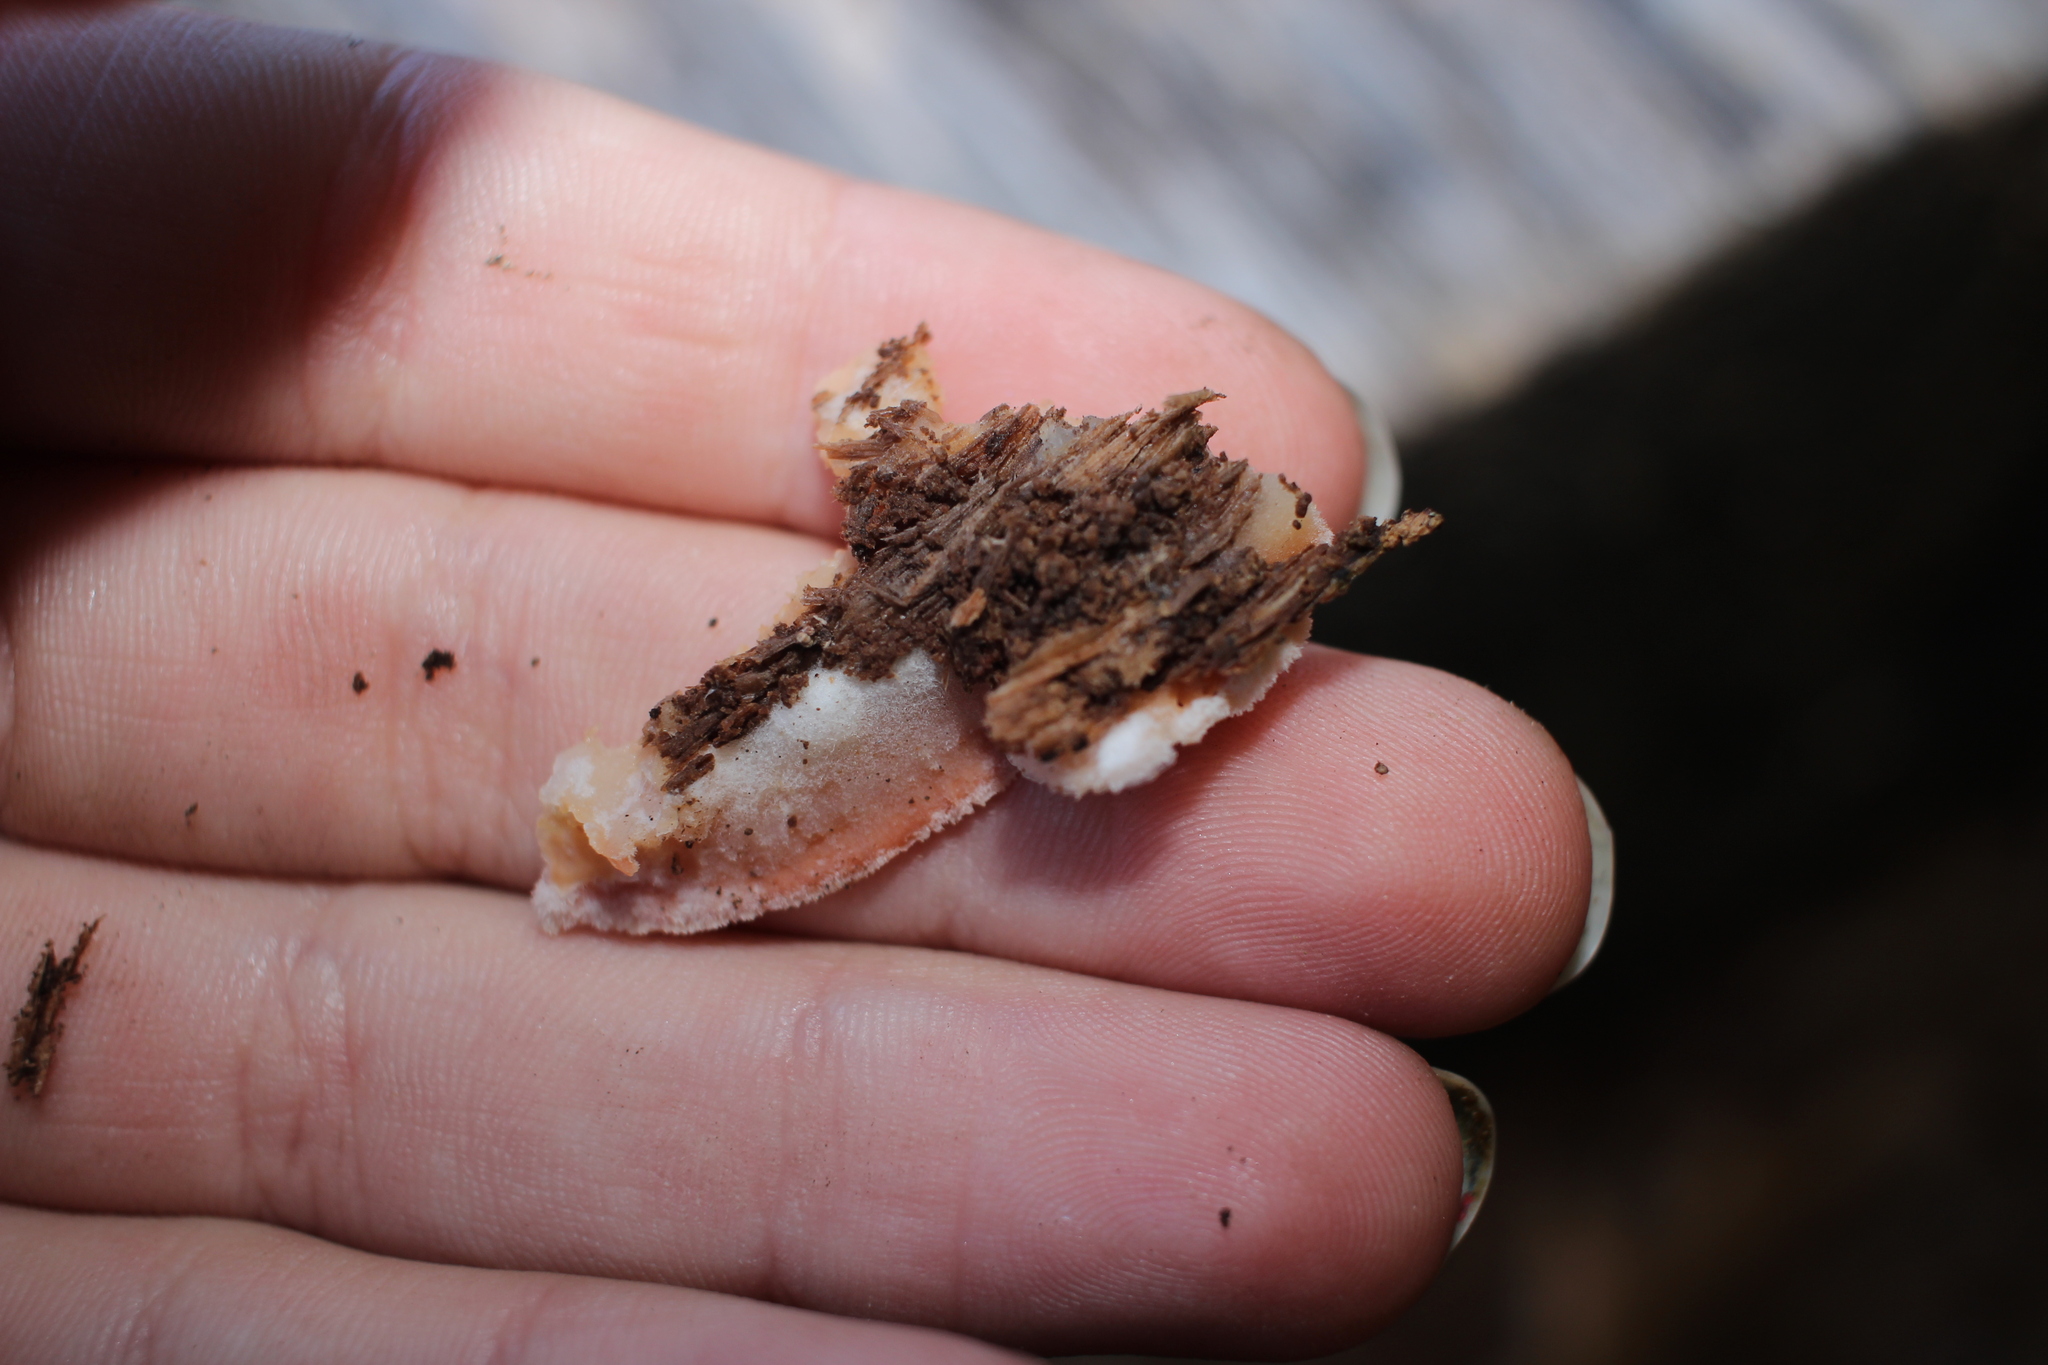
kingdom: Fungi
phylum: Basidiomycota
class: Agaricomycetes
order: Polyporales
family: Meruliaceae
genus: Phlebia
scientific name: Phlebia tremellosa
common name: Jelly rot
